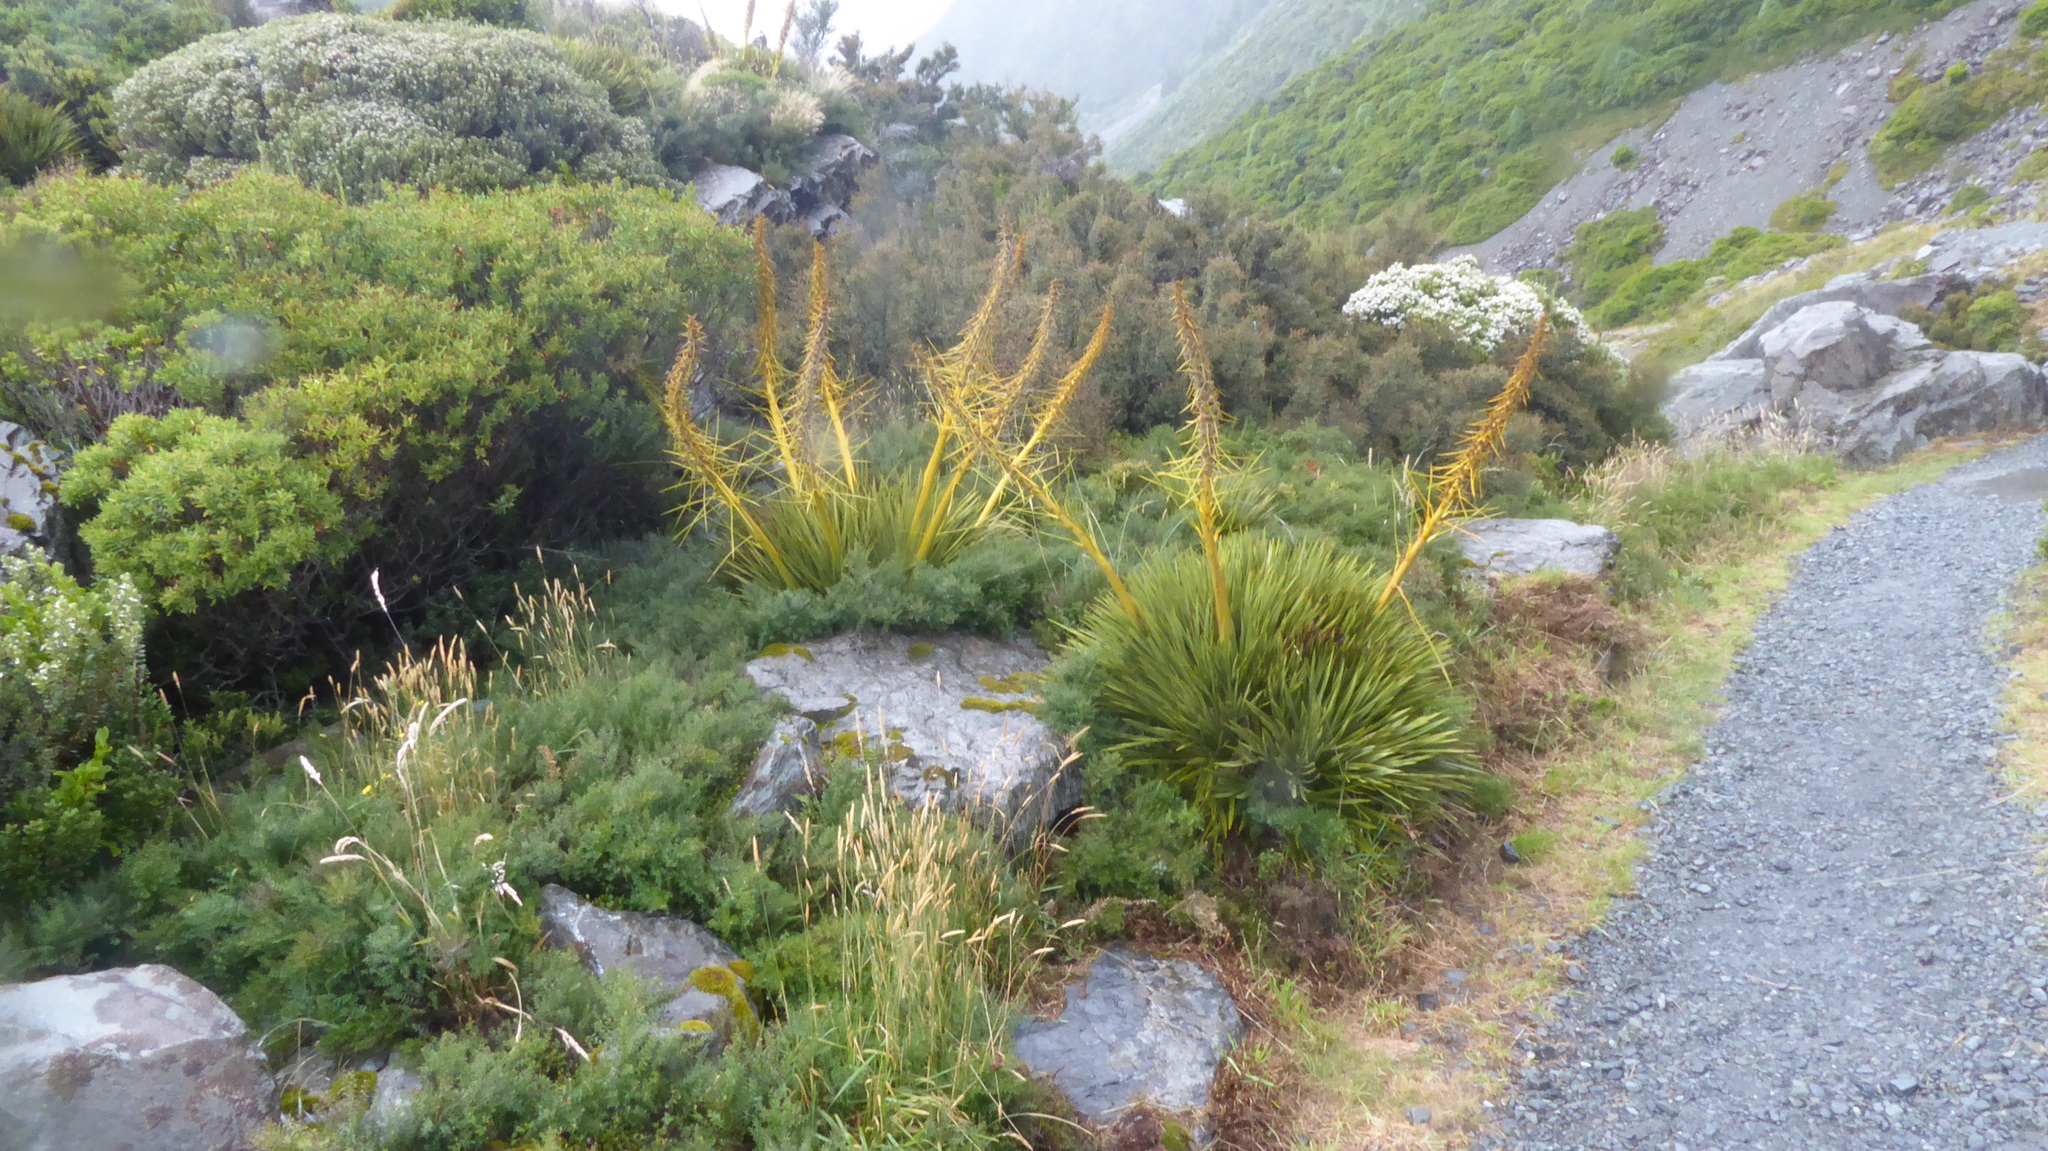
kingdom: Plantae
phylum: Tracheophyta
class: Magnoliopsida
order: Apiales
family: Apiaceae
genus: Aciphylla
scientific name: Aciphylla aurea
